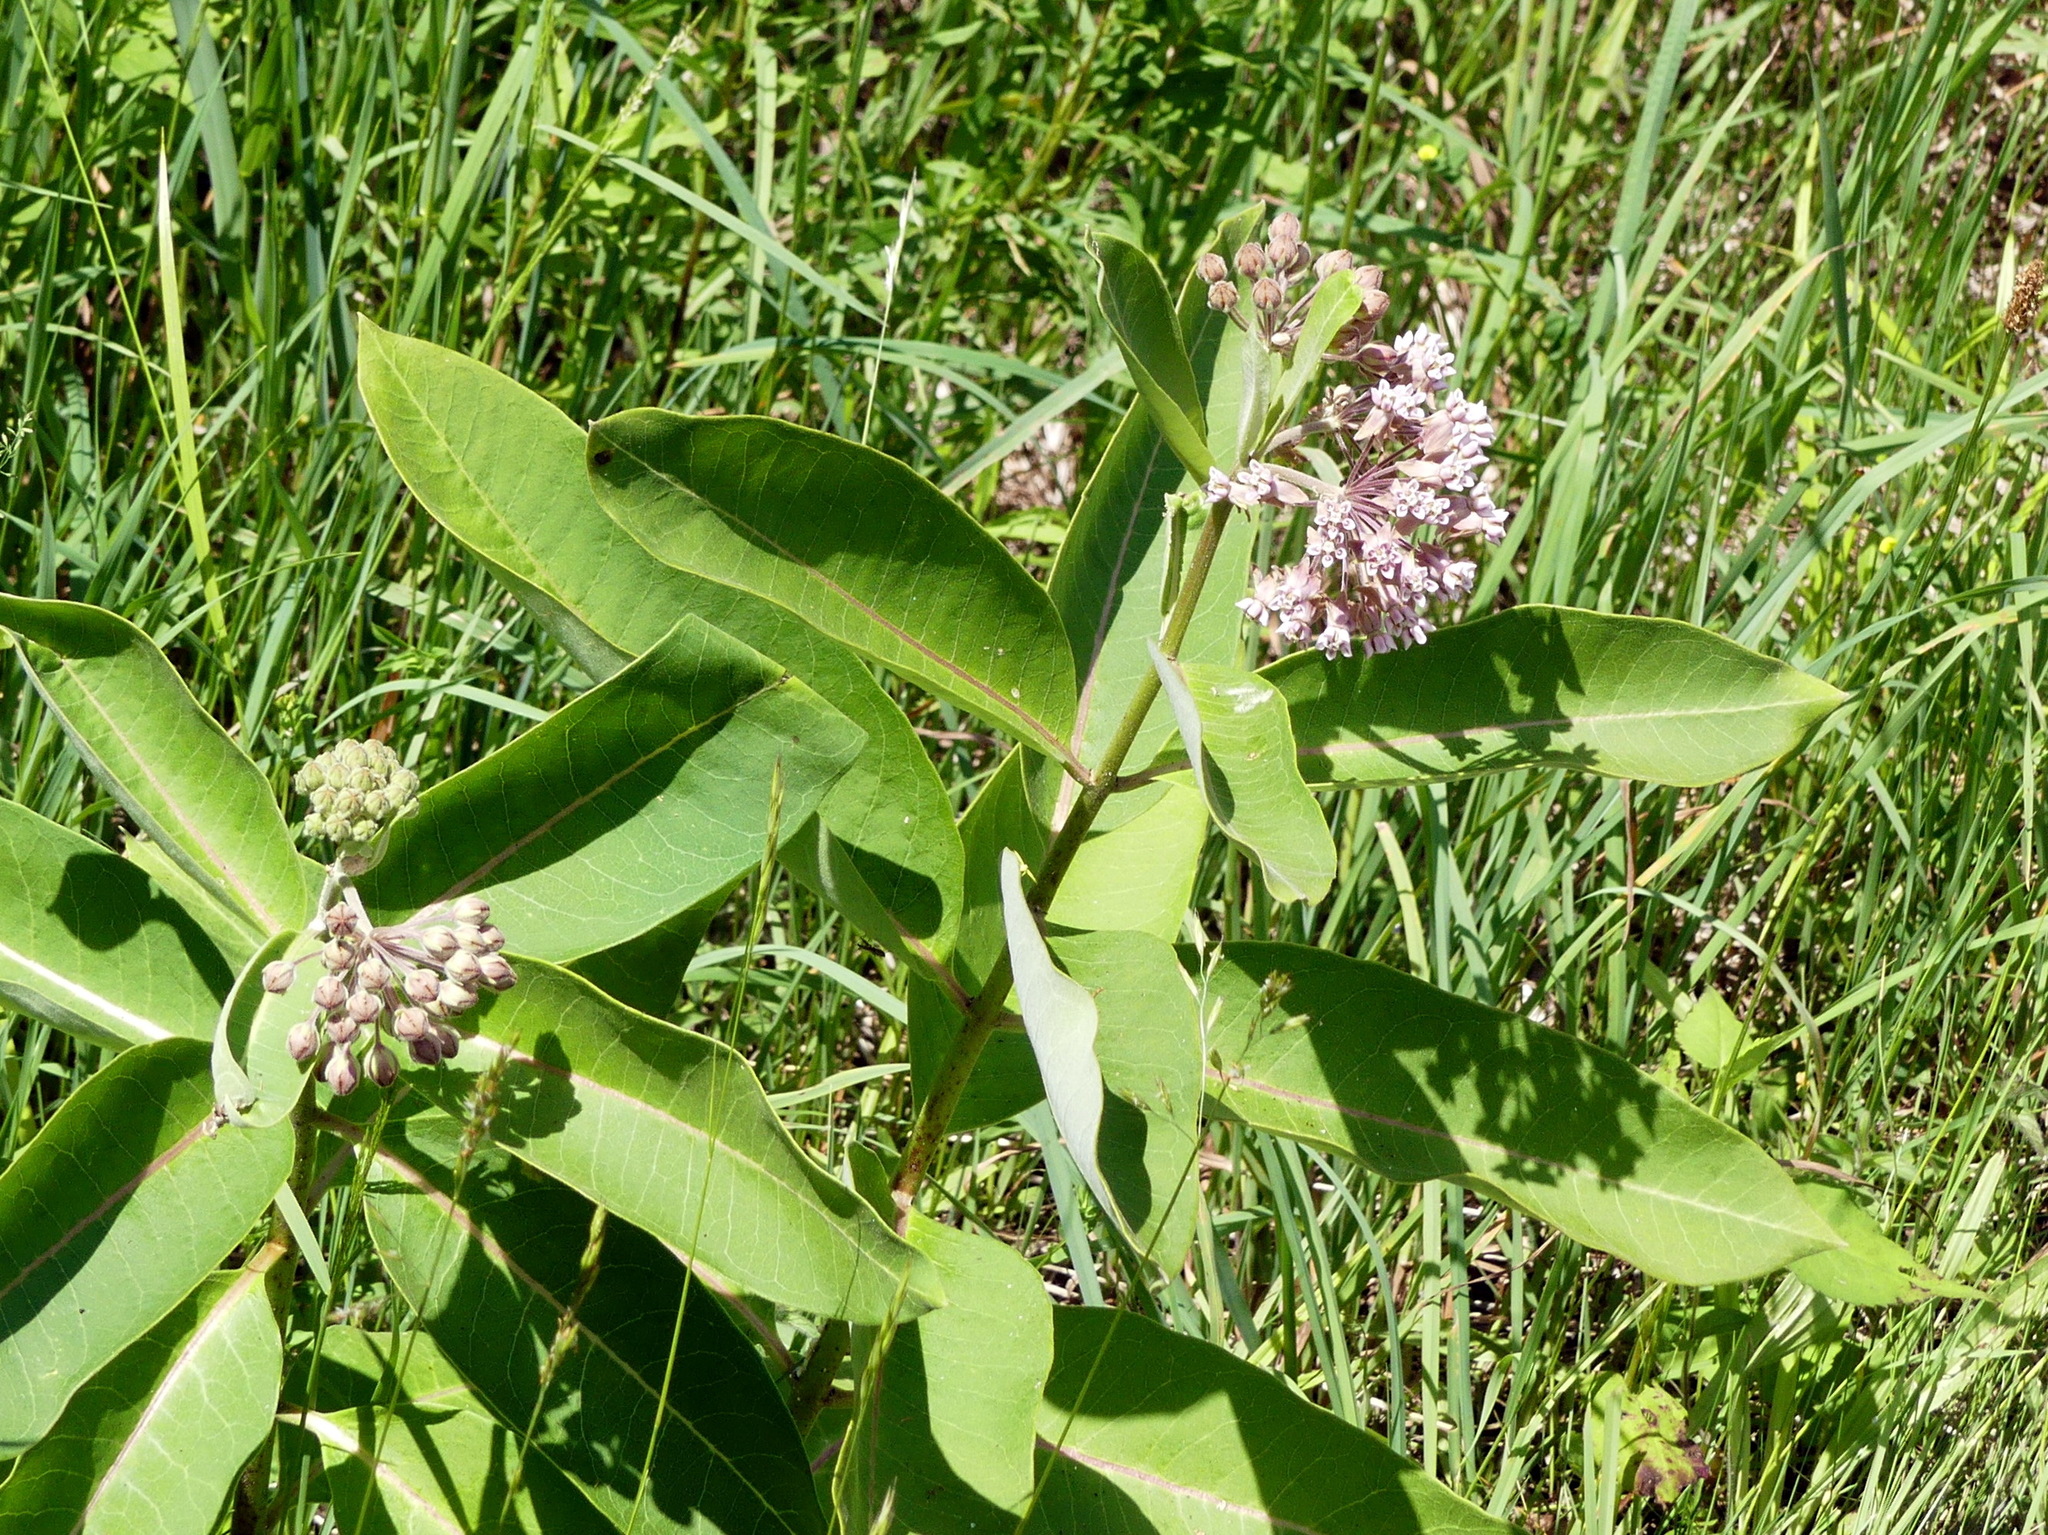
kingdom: Plantae
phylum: Tracheophyta
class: Magnoliopsida
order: Gentianales
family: Apocynaceae
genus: Asclepias
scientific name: Asclepias syriaca
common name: Common milkweed
